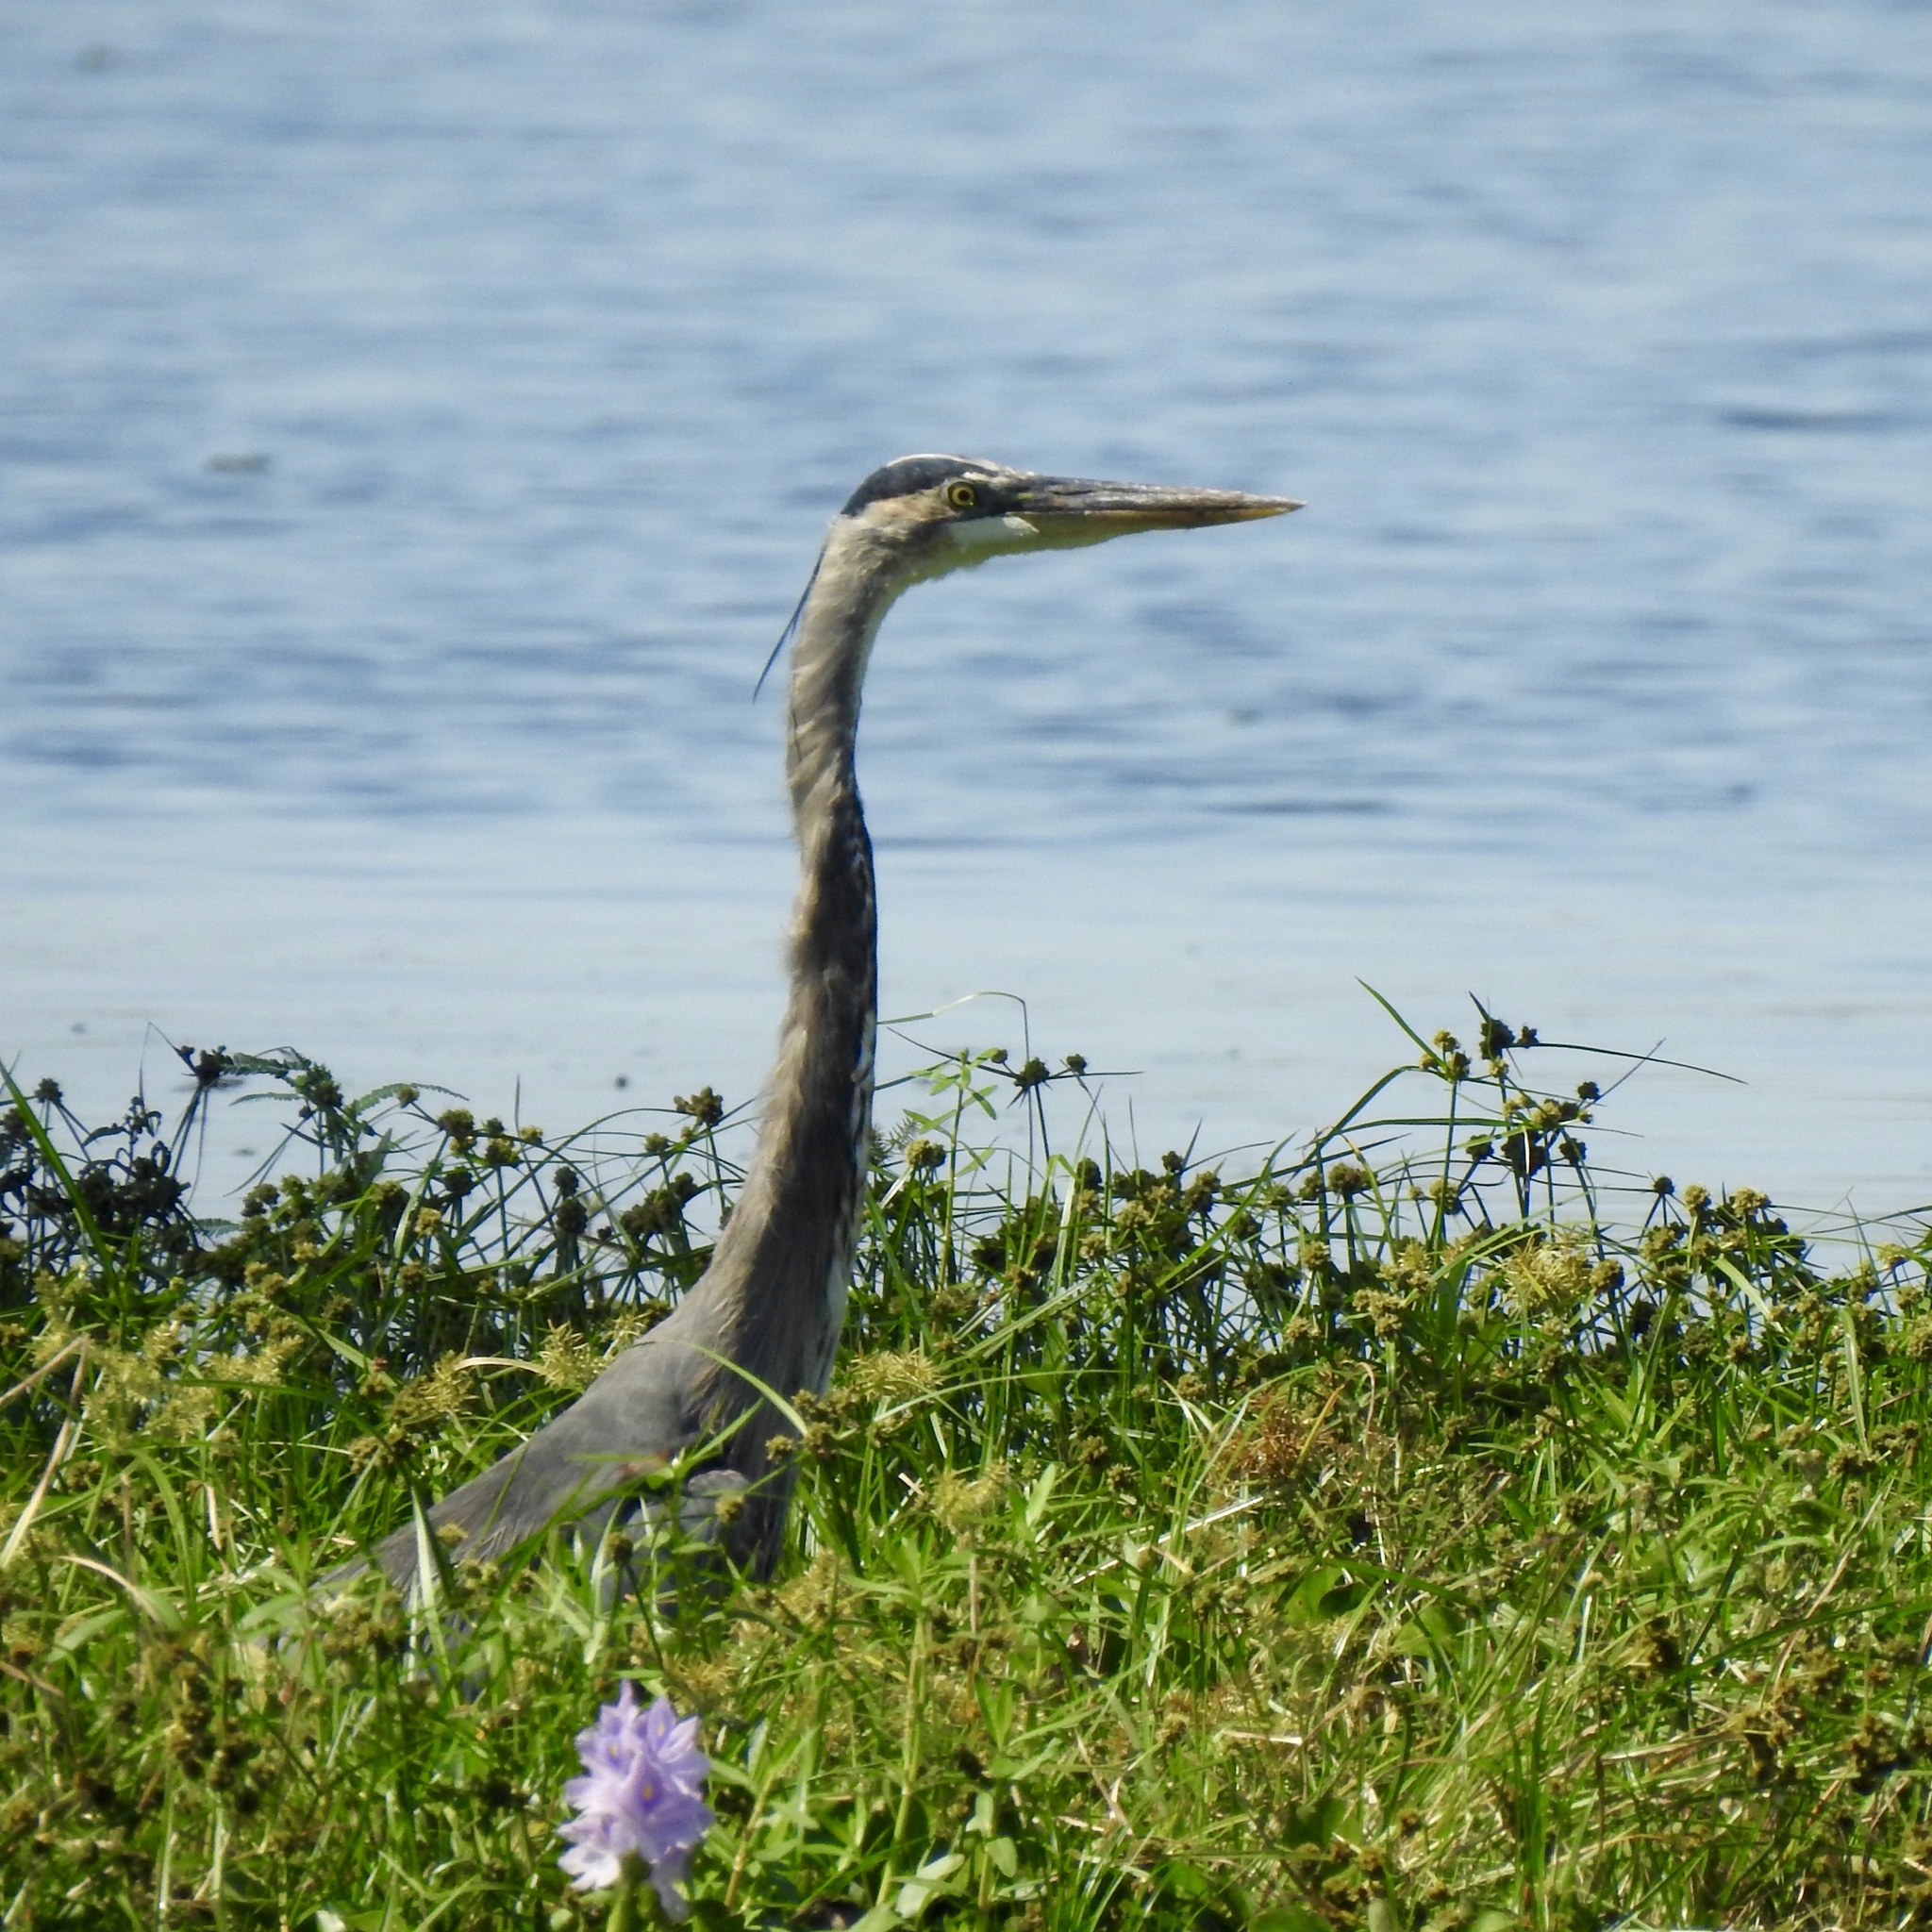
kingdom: Animalia
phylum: Chordata
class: Aves
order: Pelecaniformes
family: Ardeidae
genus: Ardea
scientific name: Ardea herodias
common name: Great blue heron
